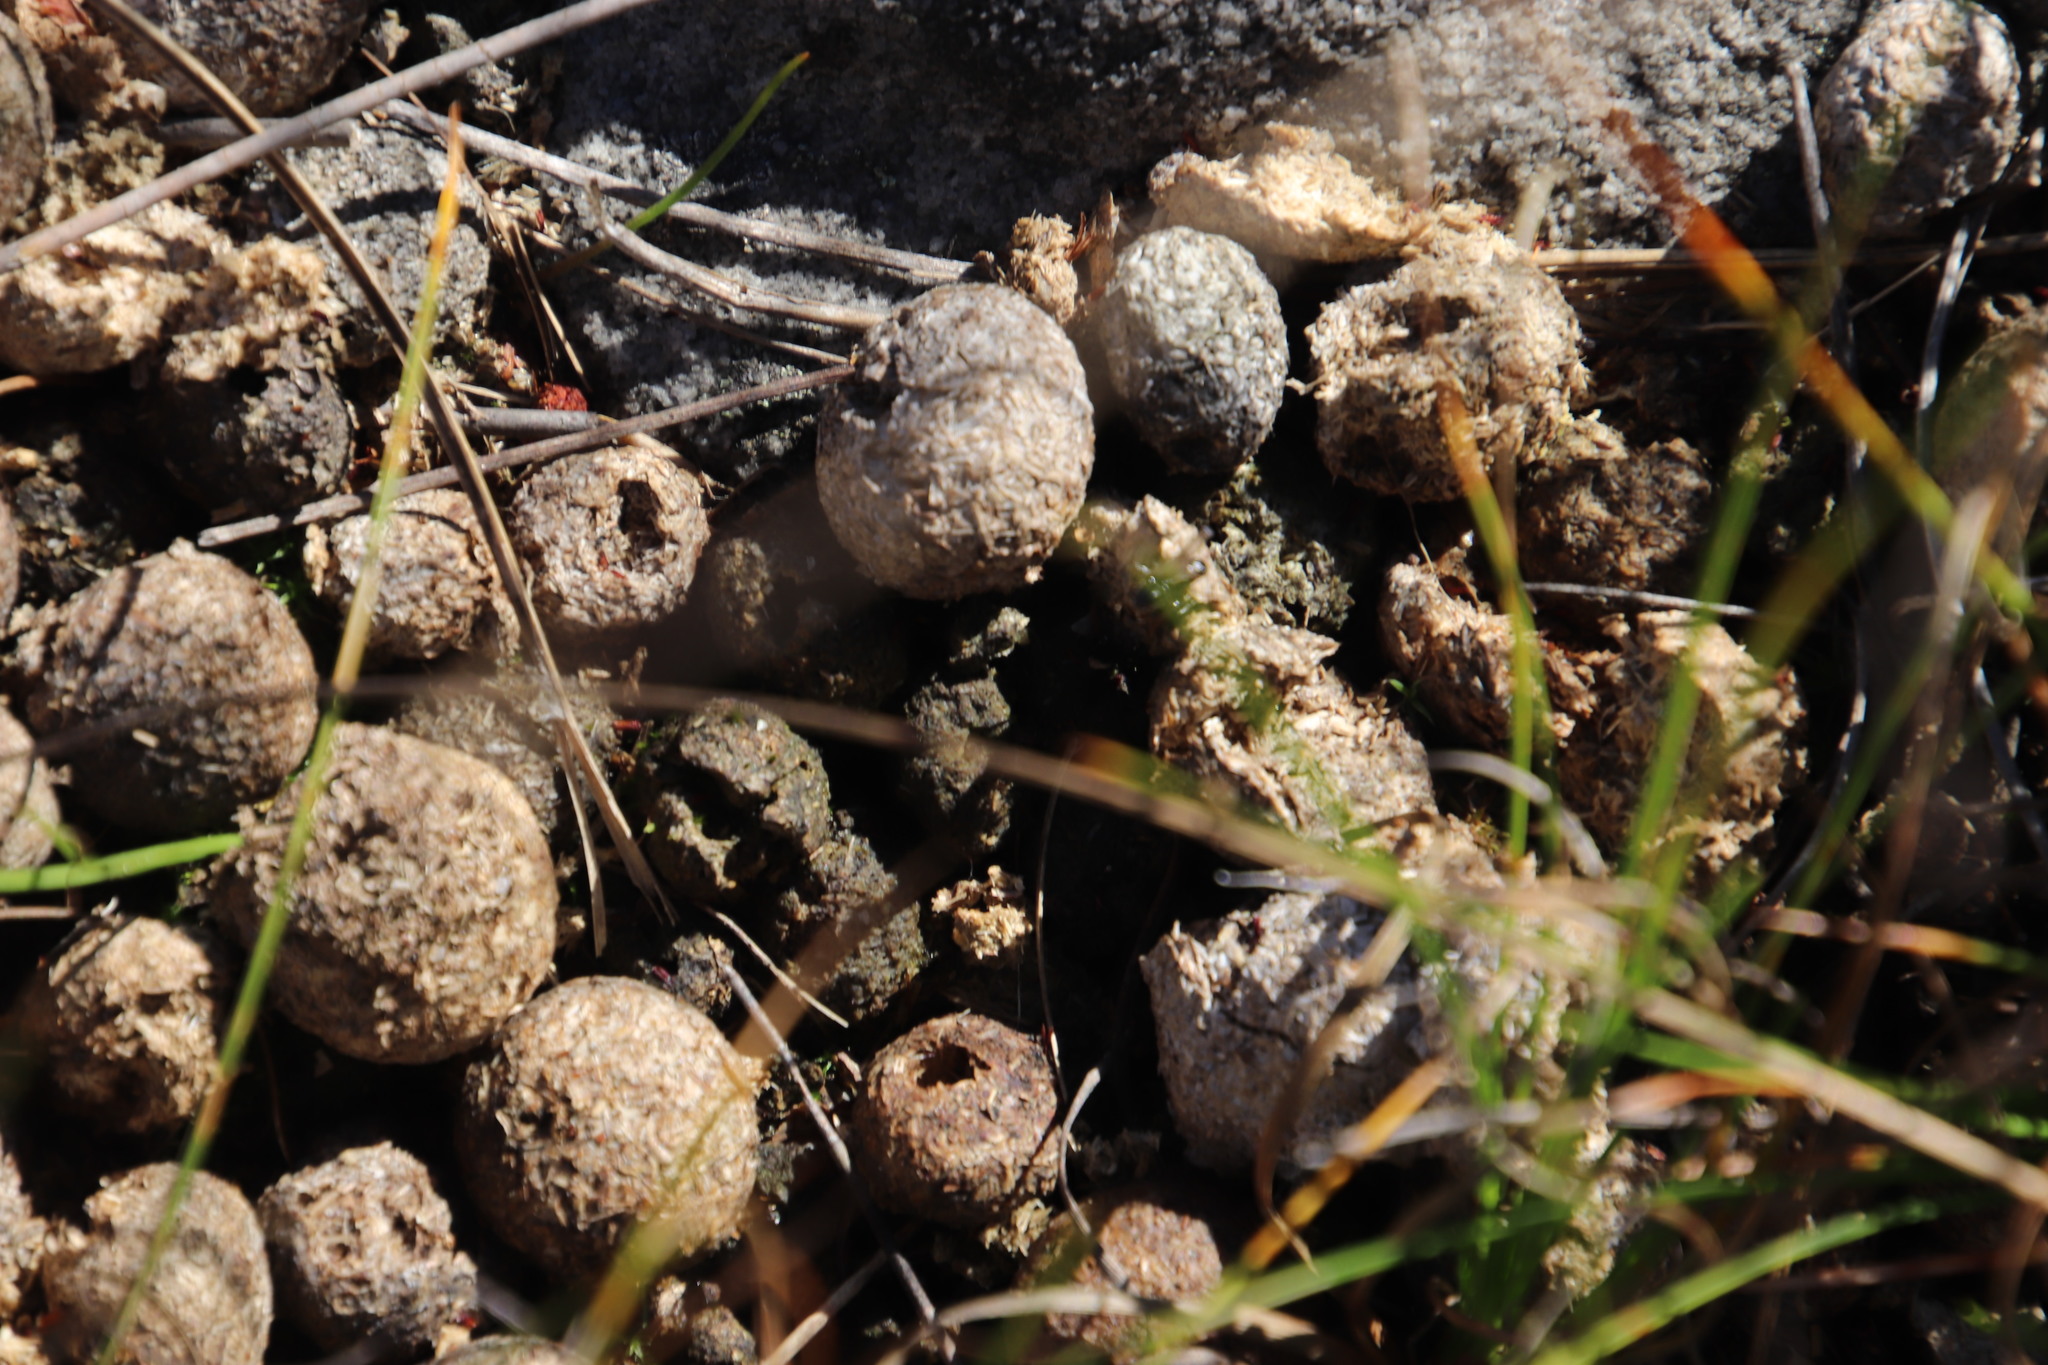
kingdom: Animalia
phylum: Chordata
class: Mammalia
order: Lagomorpha
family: Leporidae
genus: Pronolagus
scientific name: Pronolagus saundersiae
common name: Hewitt's red rock hare
